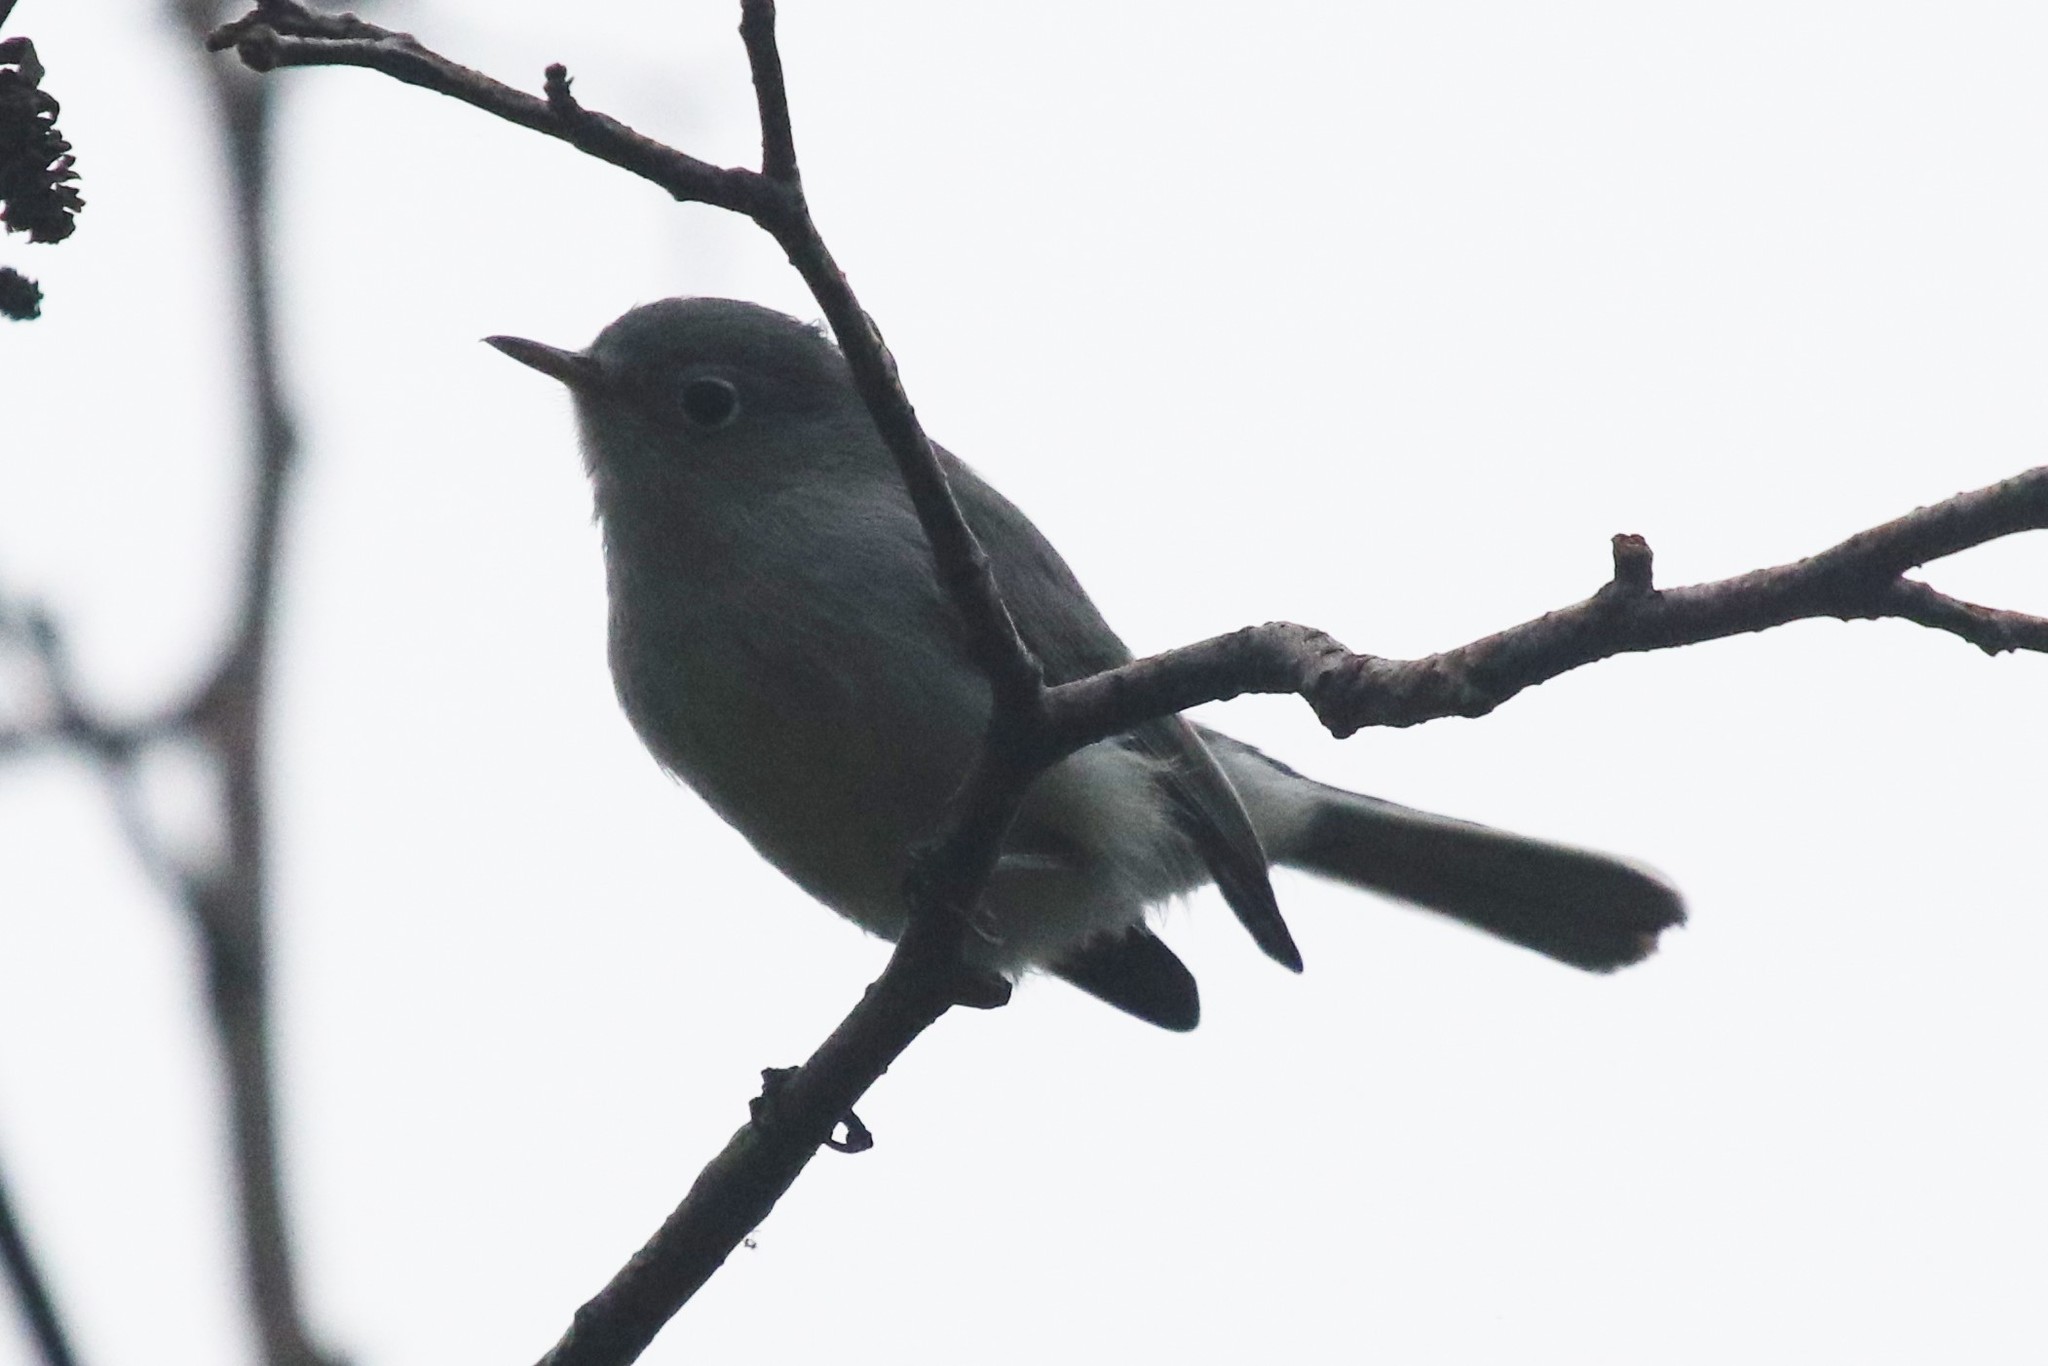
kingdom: Animalia
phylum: Chordata
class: Aves
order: Passeriformes
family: Polioptilidae
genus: Polioptila
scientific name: Polioptila caerulea
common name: Blue-gray gnatcatcher
